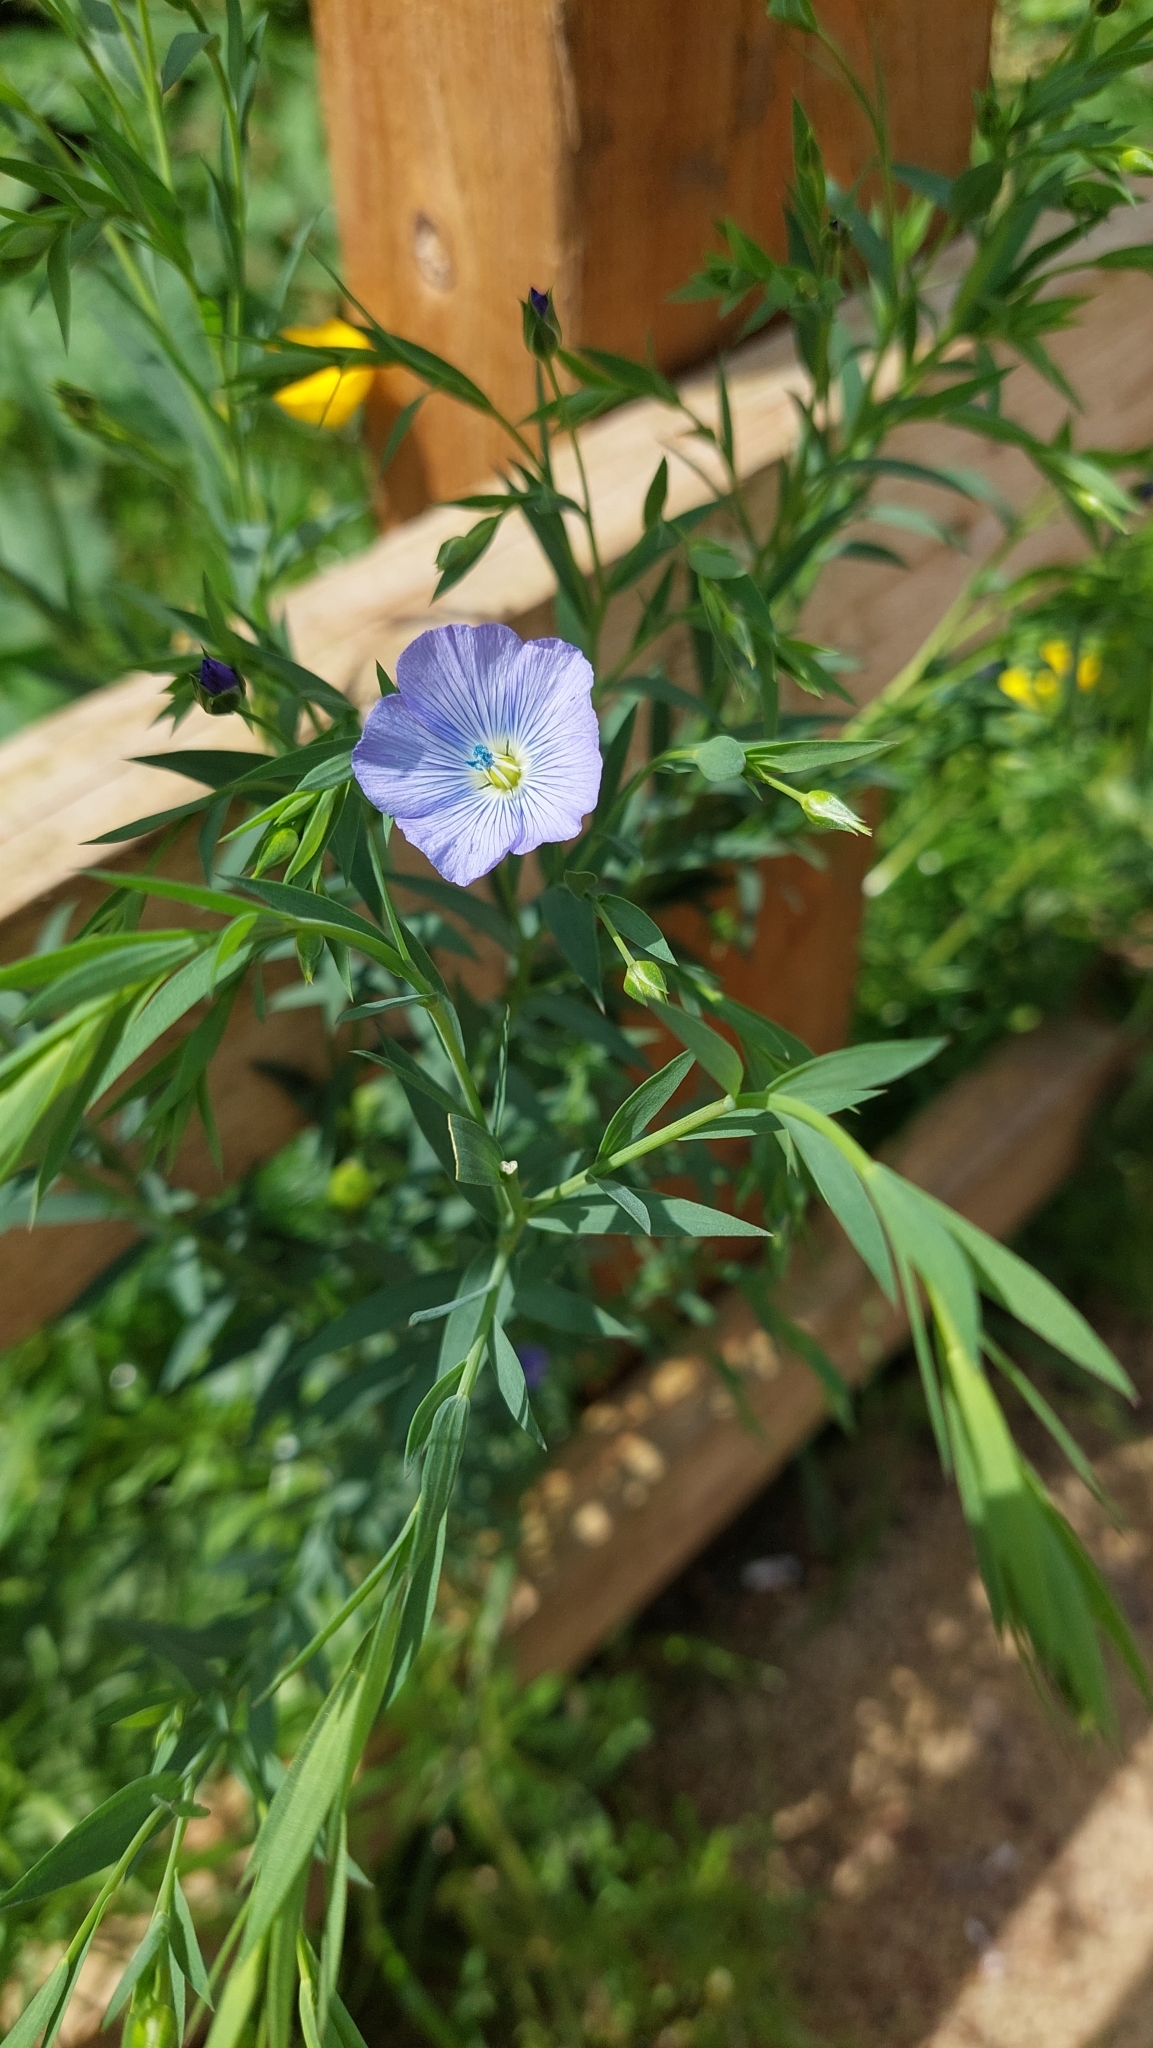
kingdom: Plantae
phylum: Tracheophyta
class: Magnoliopsida
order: Malpighiales
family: Linaceae
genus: Linum
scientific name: Linum usitatissimum
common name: Flax
